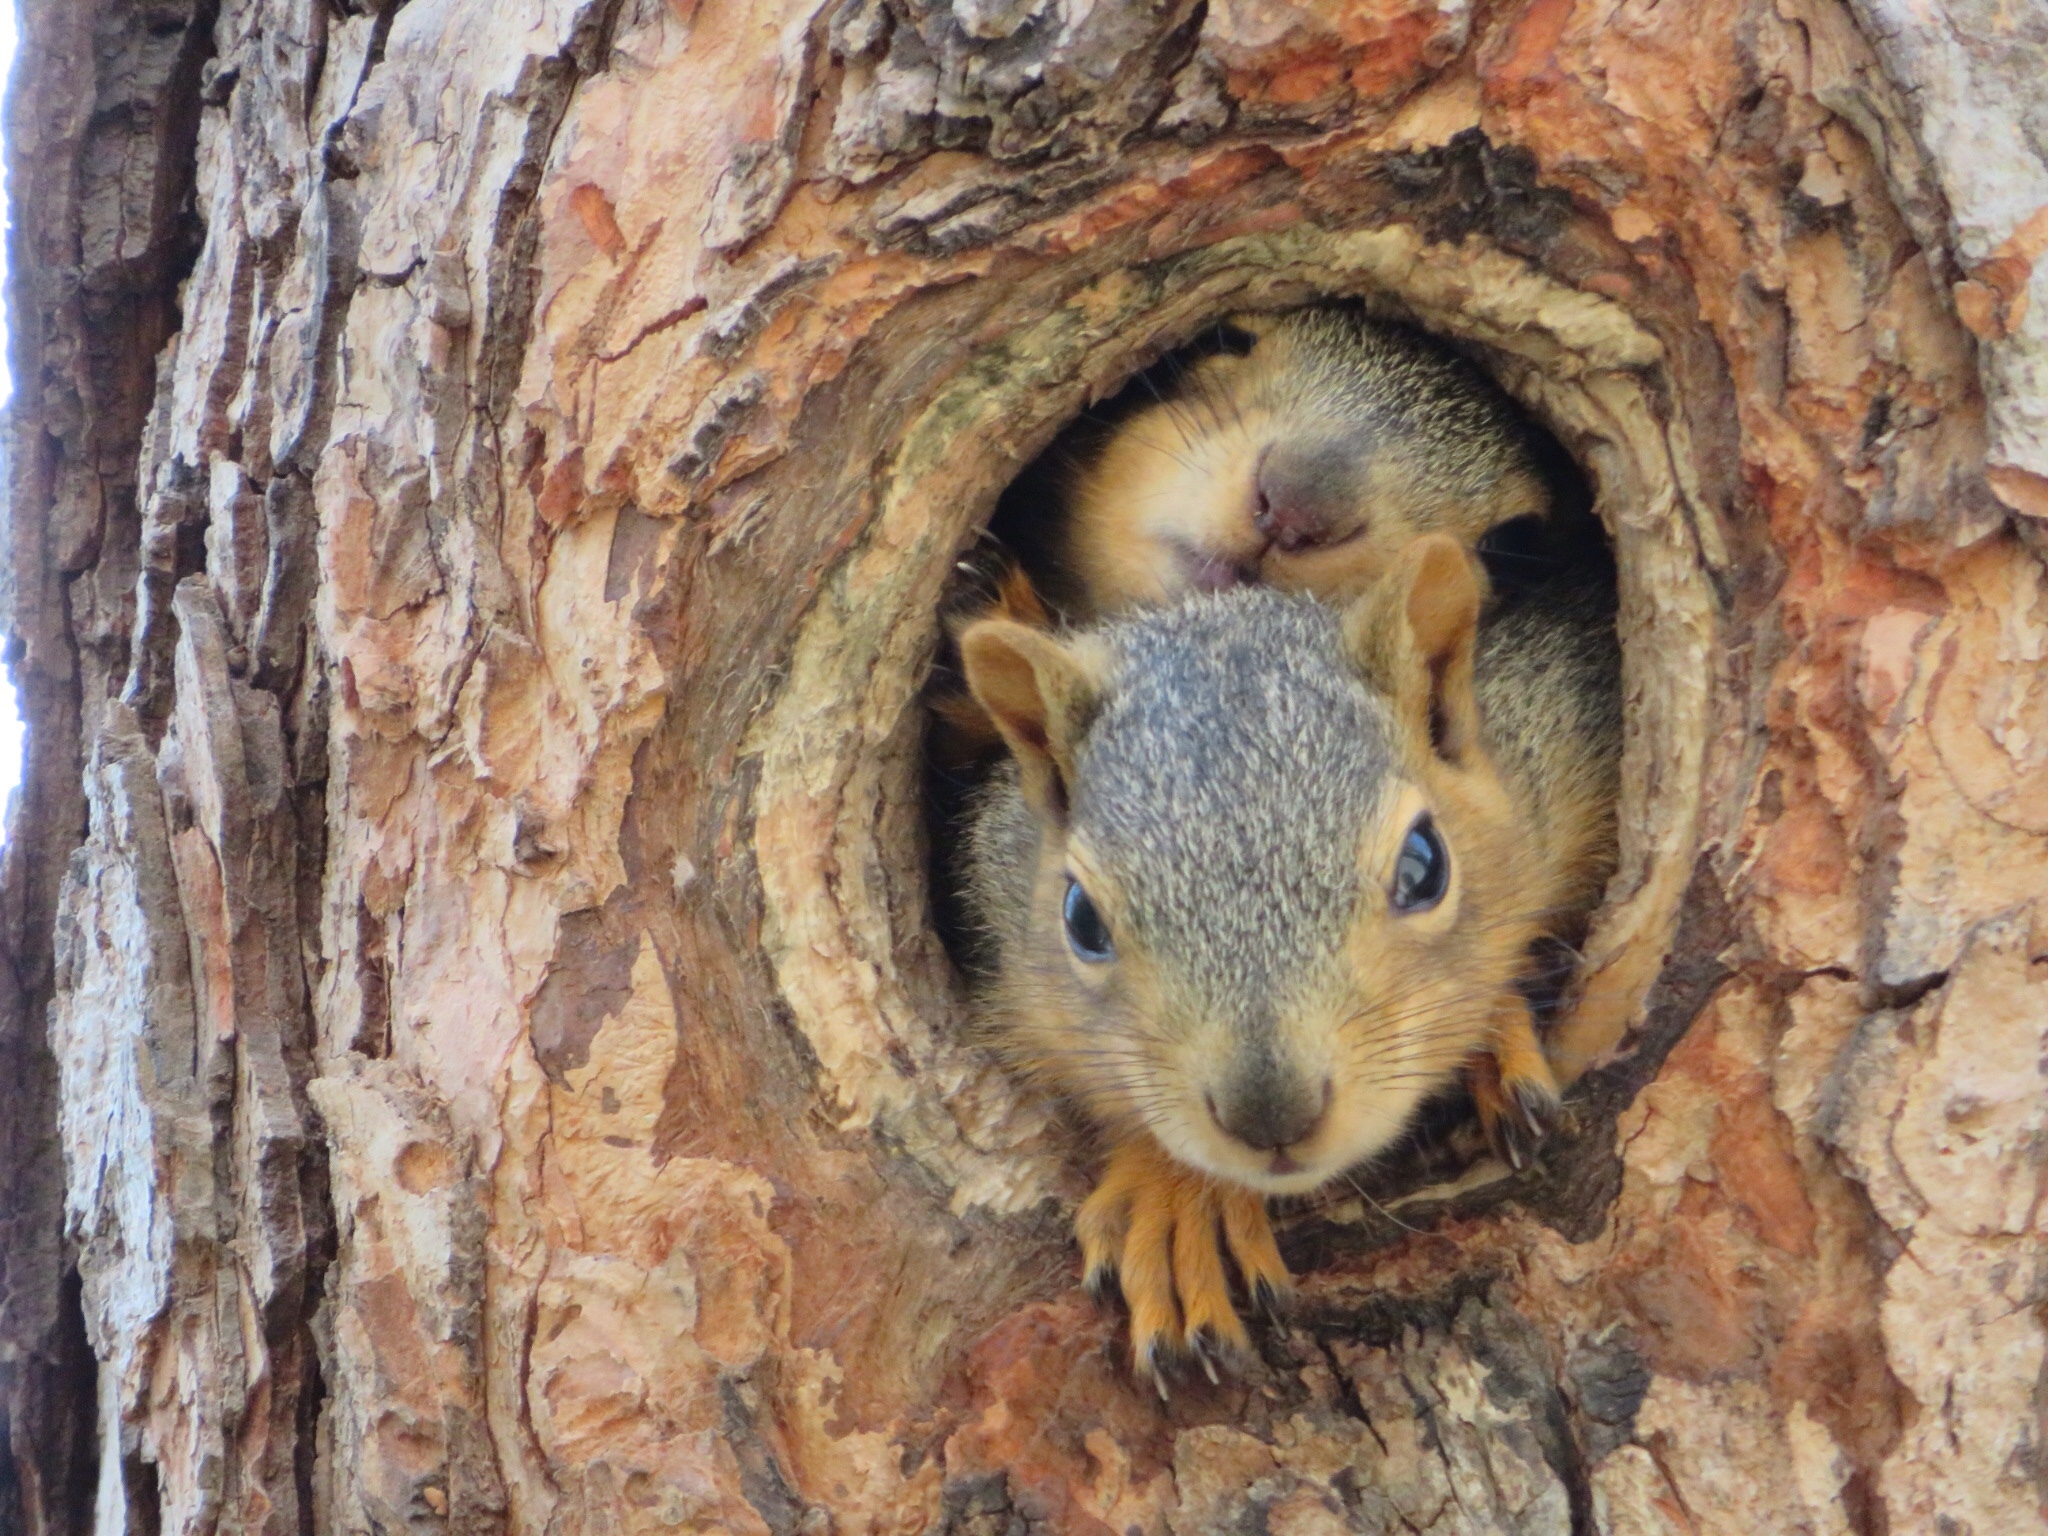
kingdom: Animalia
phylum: Chordata
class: Mammalia
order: Rodentia
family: Sciuridae
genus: Sciurus
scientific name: Sciurus niger
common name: Fox squirrel
